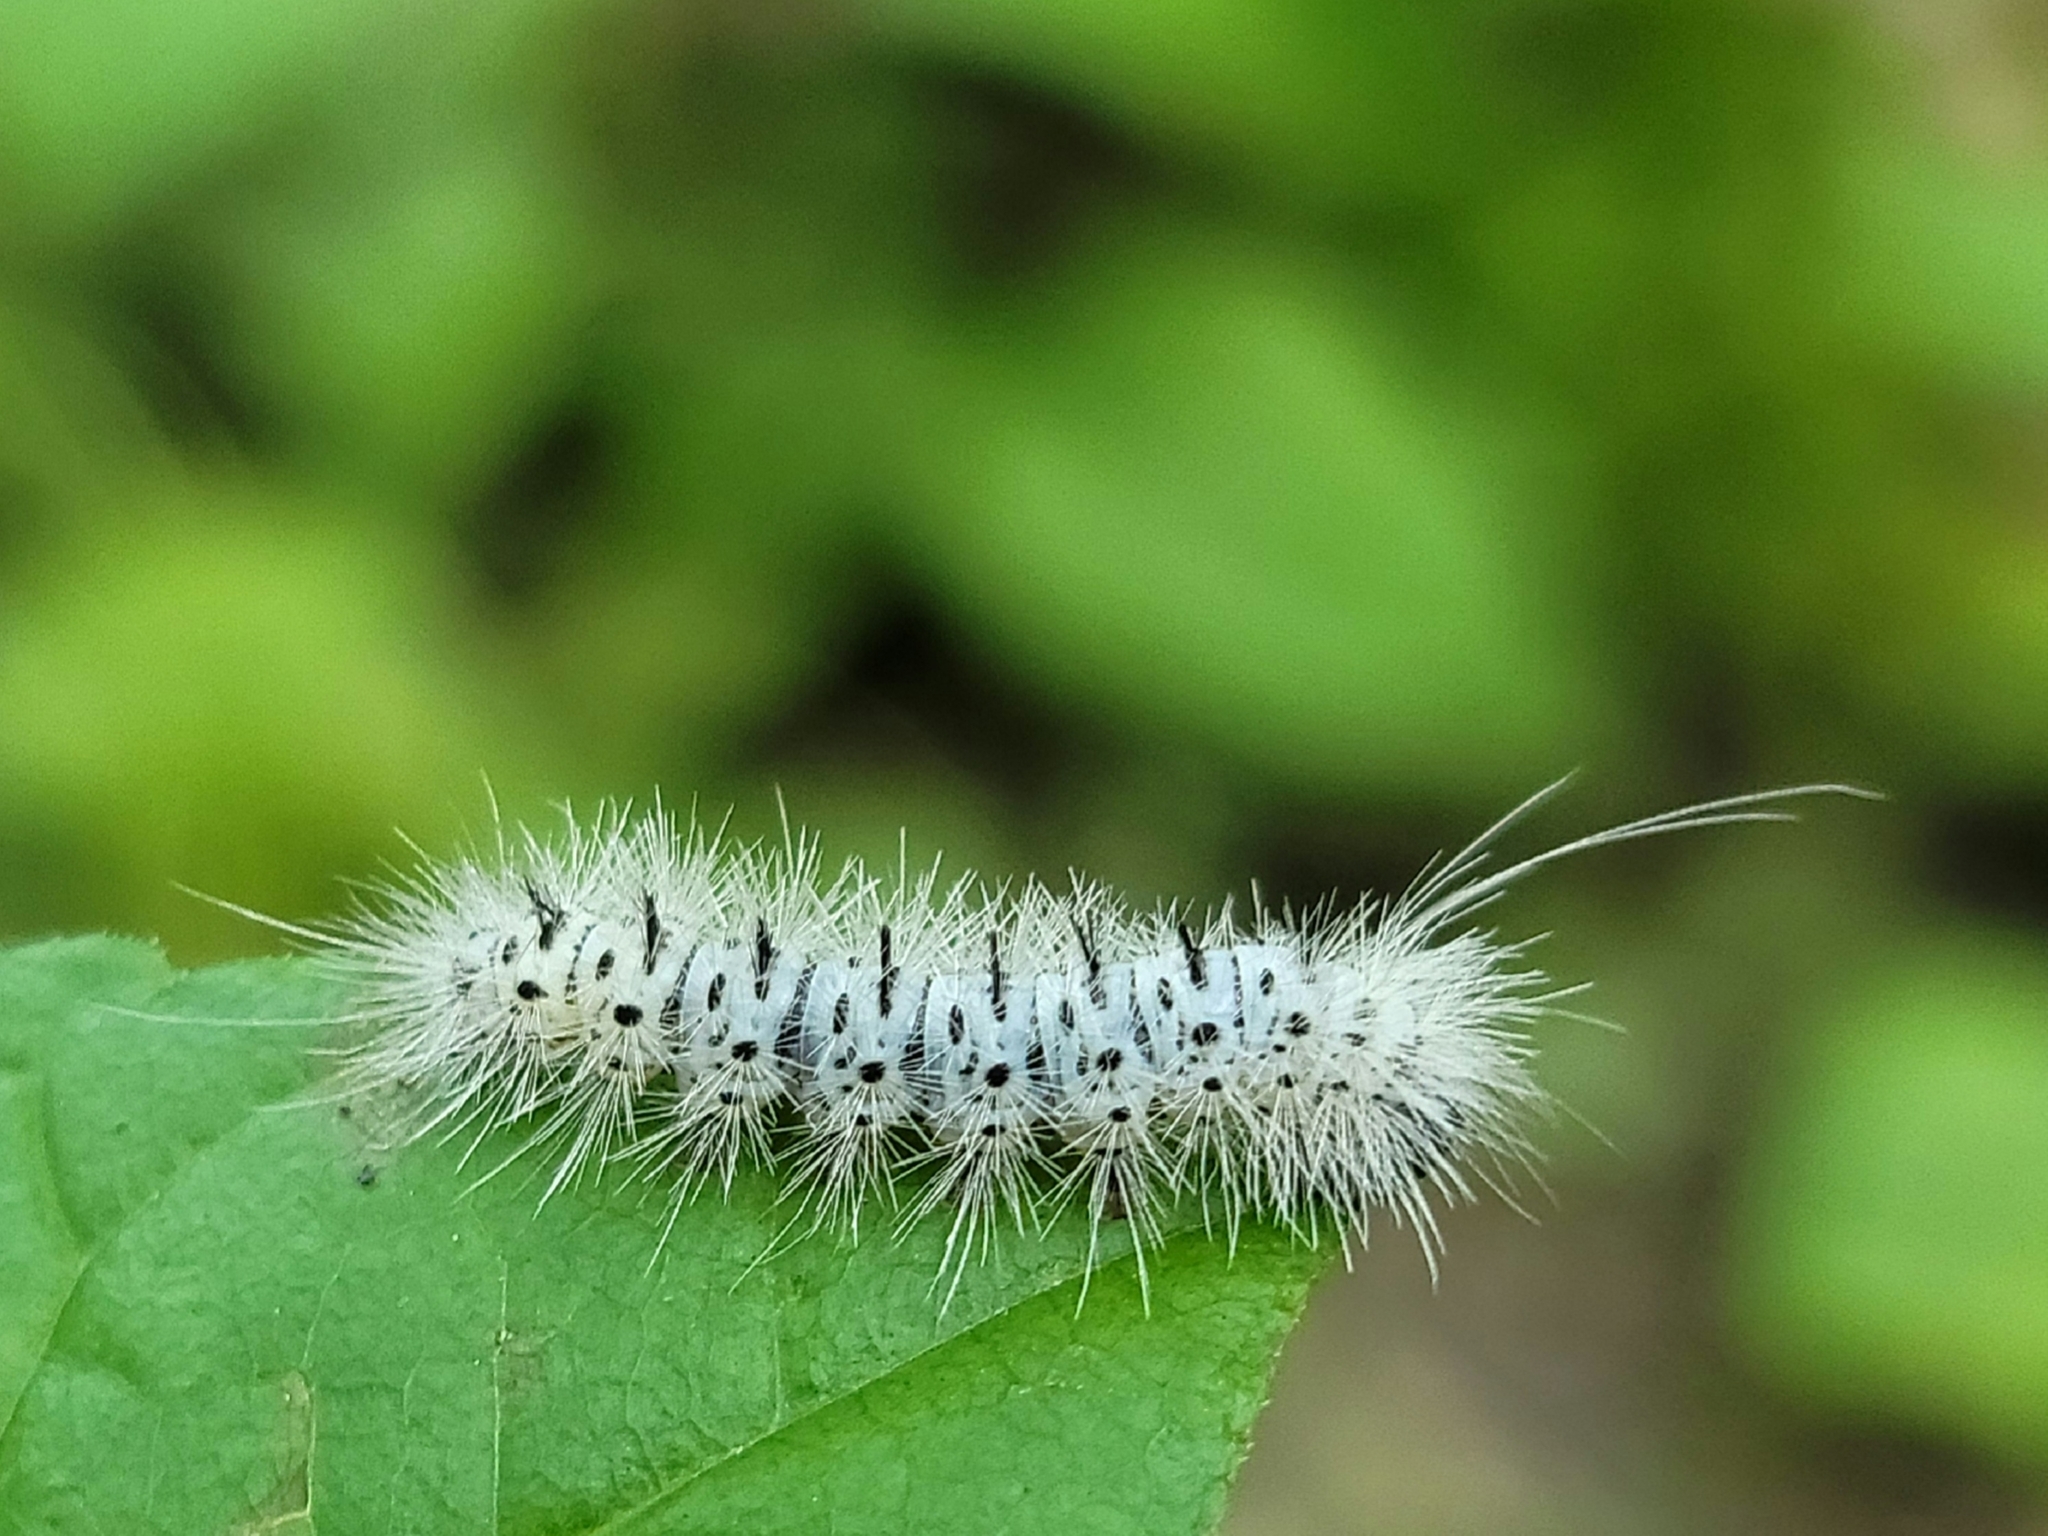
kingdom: Animalia
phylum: Arthropoda
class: Insecta
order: Lepidoptera
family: Erebidae
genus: Lophocampa
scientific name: Lophocampa caryae
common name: Hickory tussock moth
